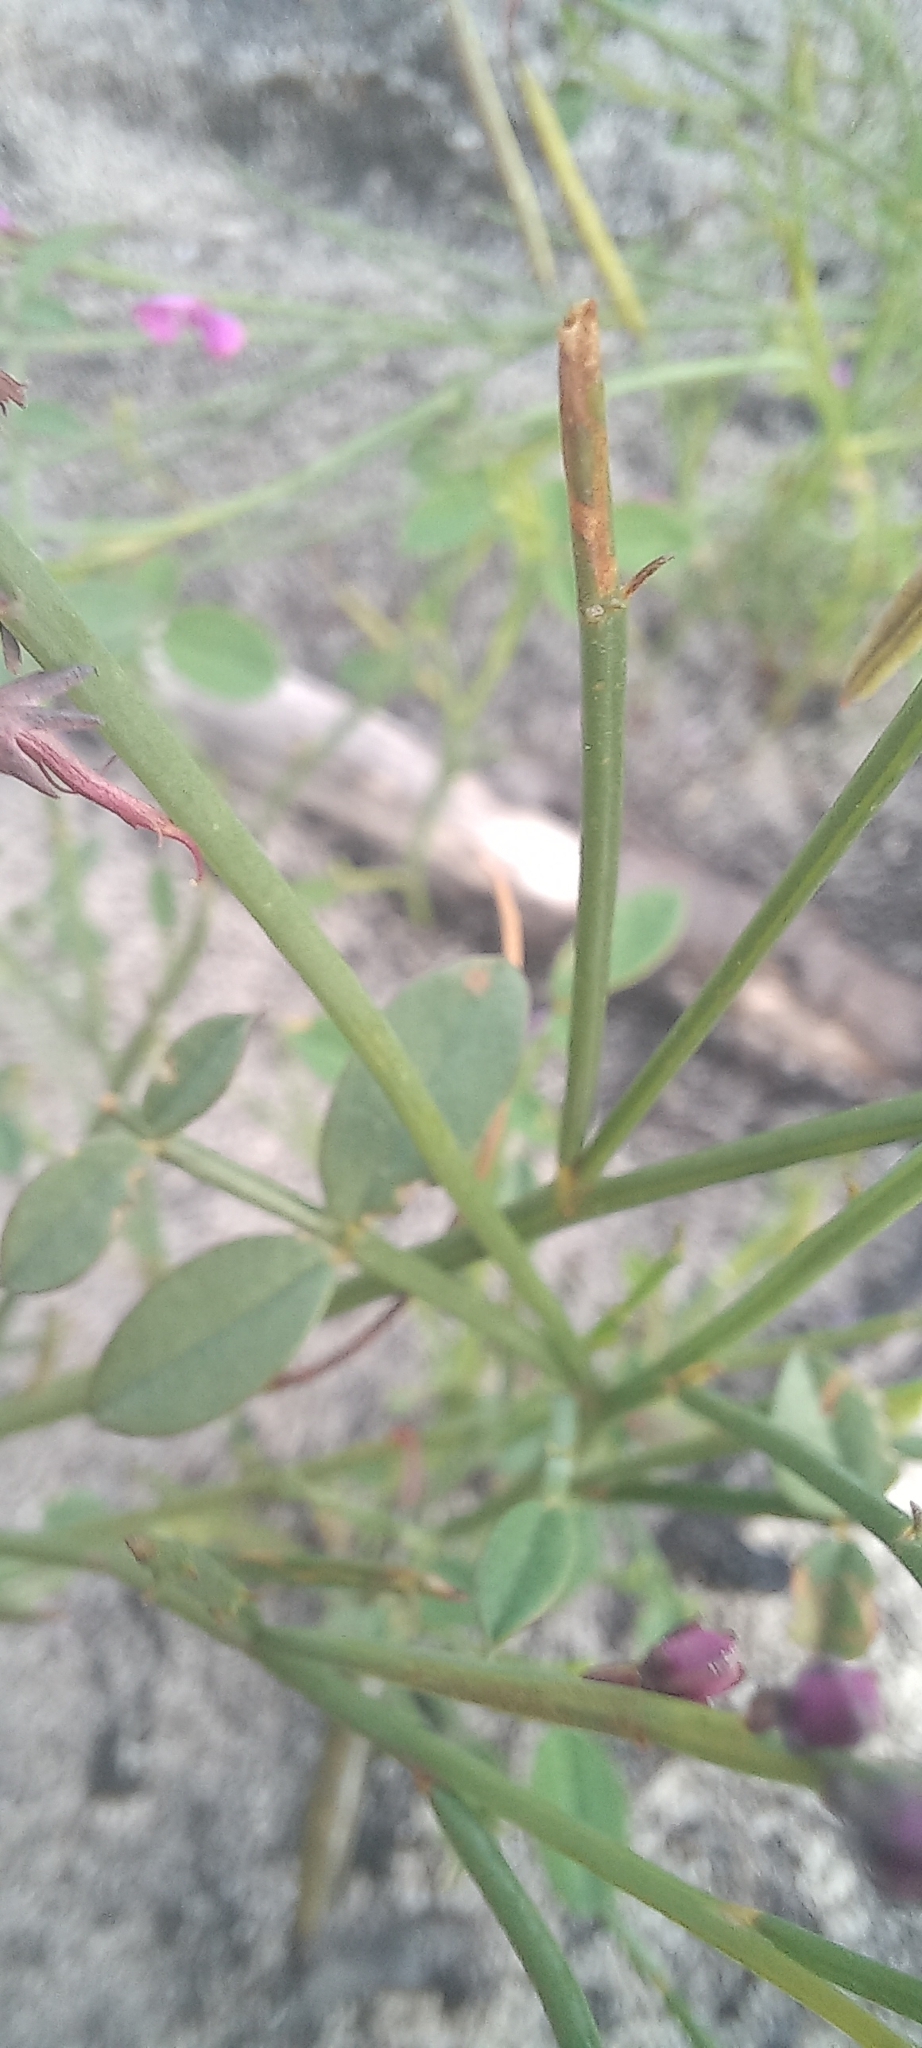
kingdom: Plantae
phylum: Tracheophyta
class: Magnoliopsida
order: Fabales
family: Fabaceae
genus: Indigofera
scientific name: Indigofera ionii
